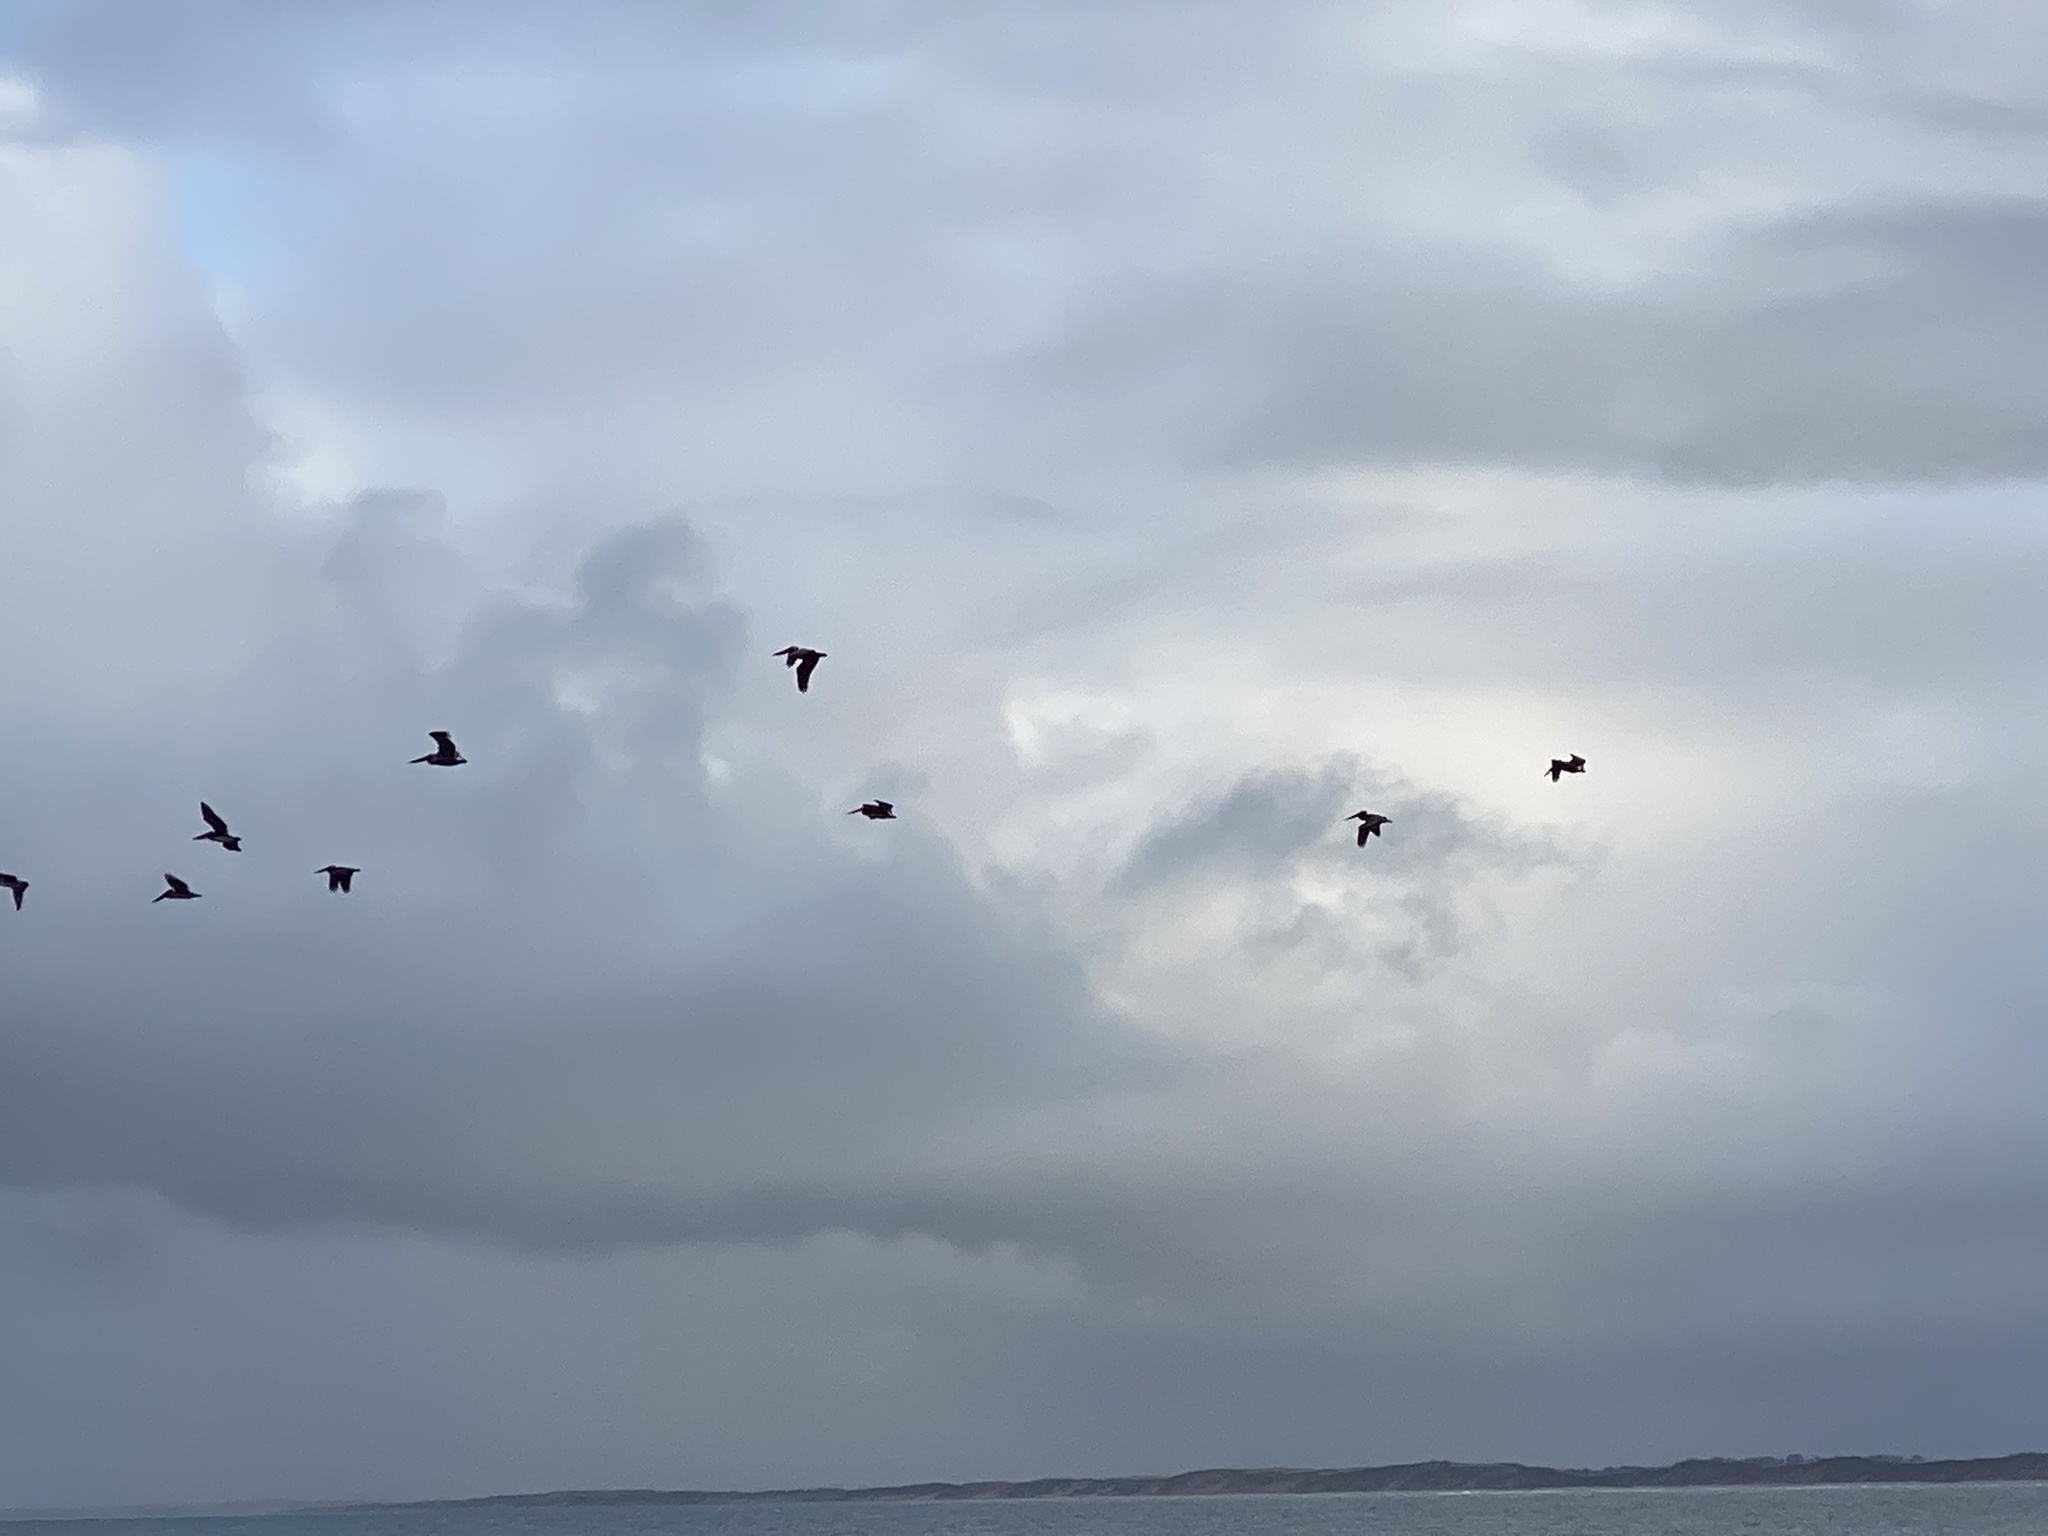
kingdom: Animalia
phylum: Chordata
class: Aves
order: Pelecaniformes
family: Pelecanidae
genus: Pelecanus
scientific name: Pelecanus occidentalis
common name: Brown pelican
